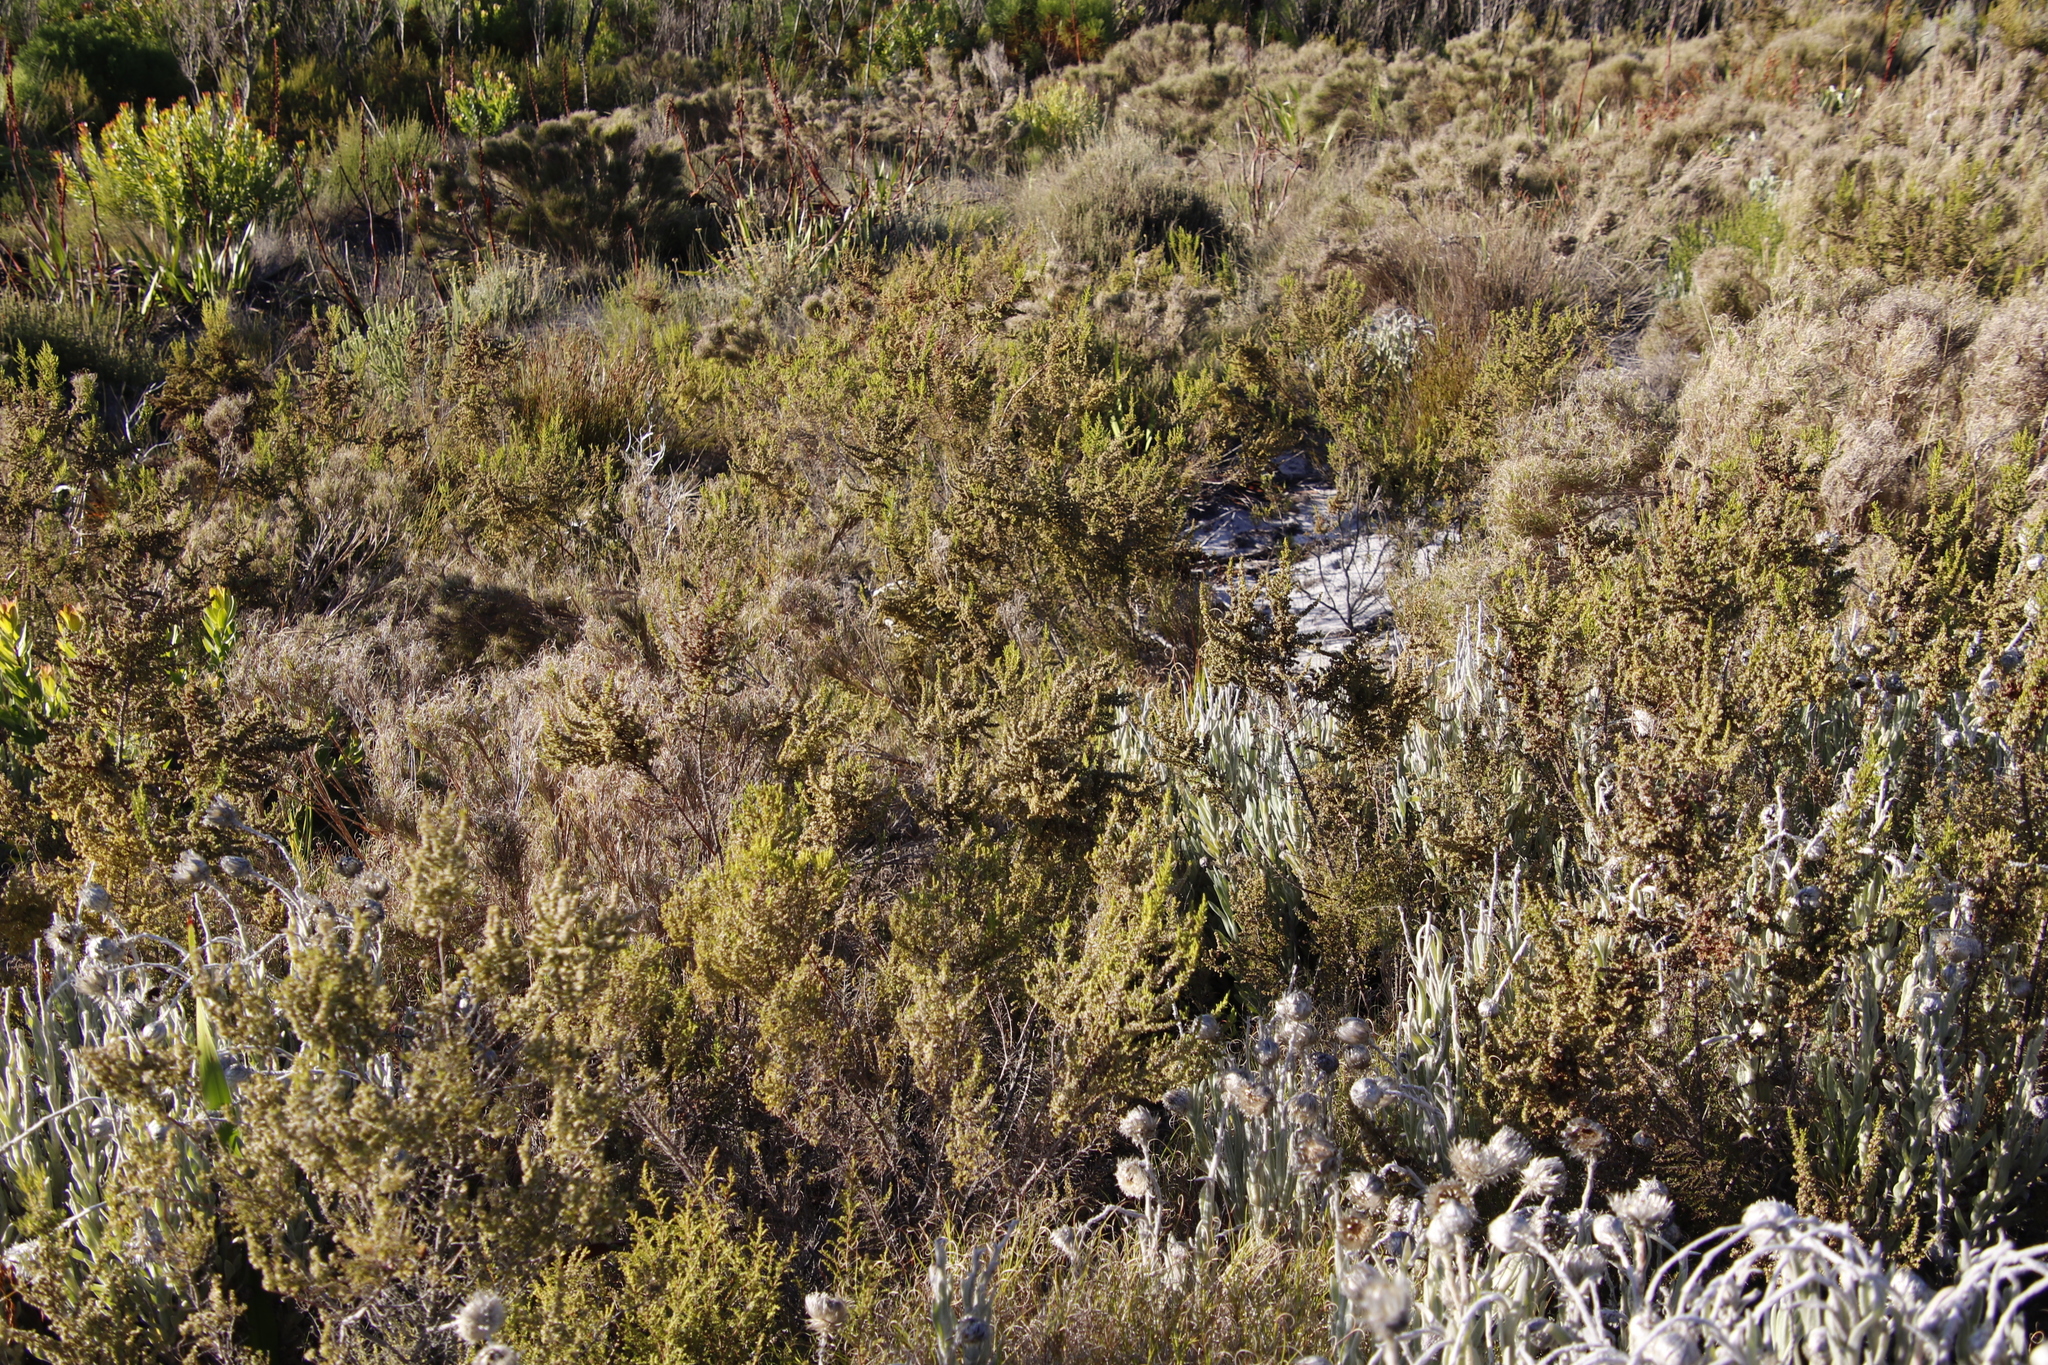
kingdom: Plantae
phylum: Tracheophyta
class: Magnoliopsida
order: Ericales
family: Ericaceae
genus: Erica
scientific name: Erica muscosa
